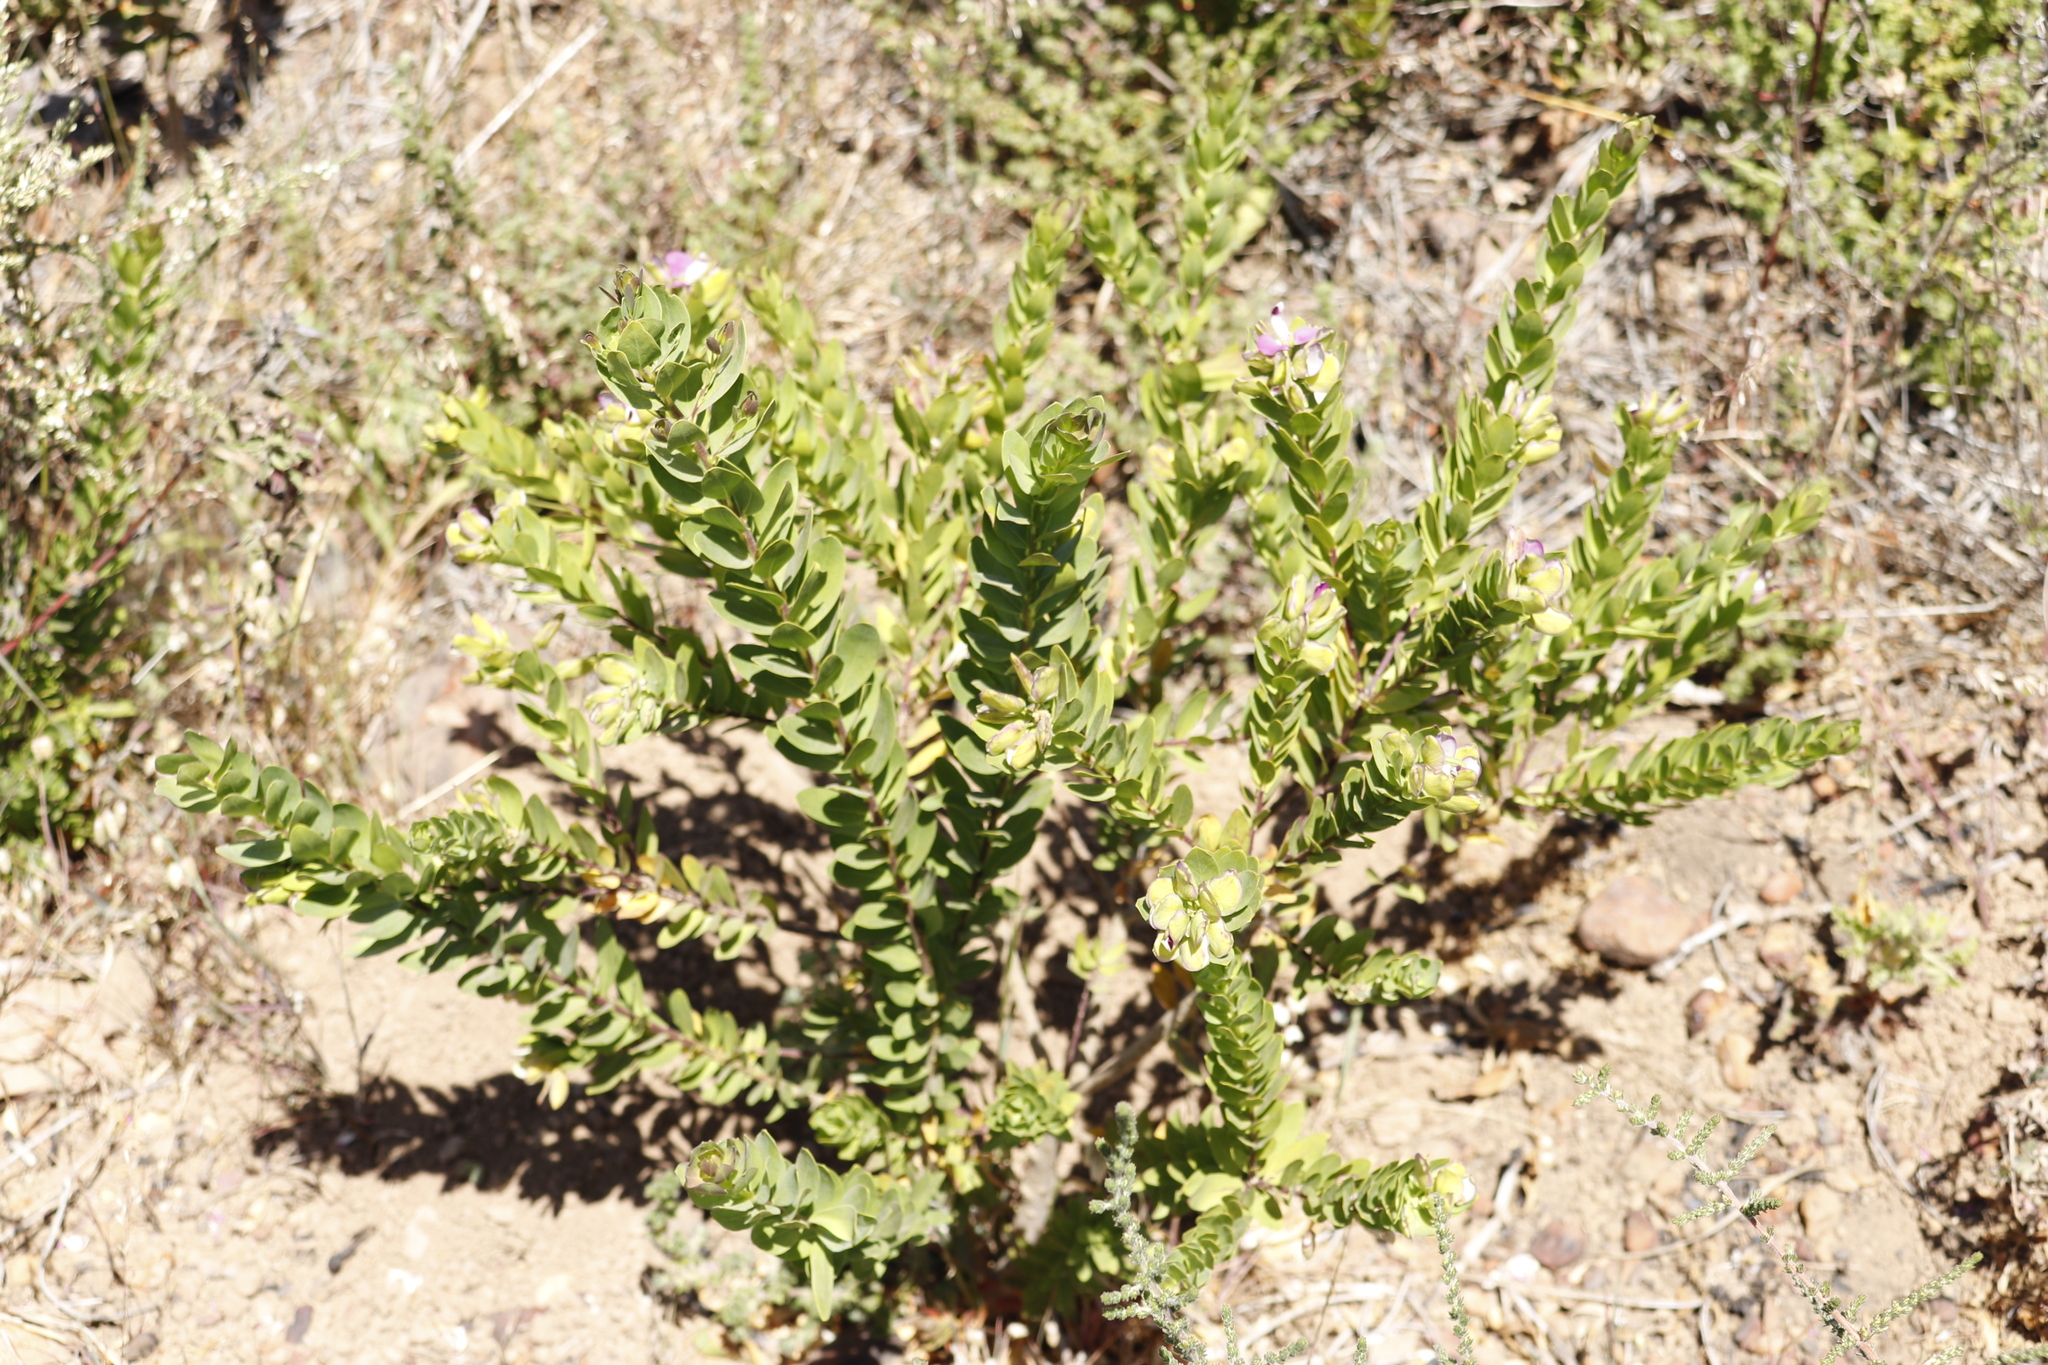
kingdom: Plantae
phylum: Tracheophyta
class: Magnoliopsida
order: Fabales
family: Polygalaceae
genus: Polygala
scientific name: Polygala myrtifolia
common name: Myrtle-leaf milkwort
